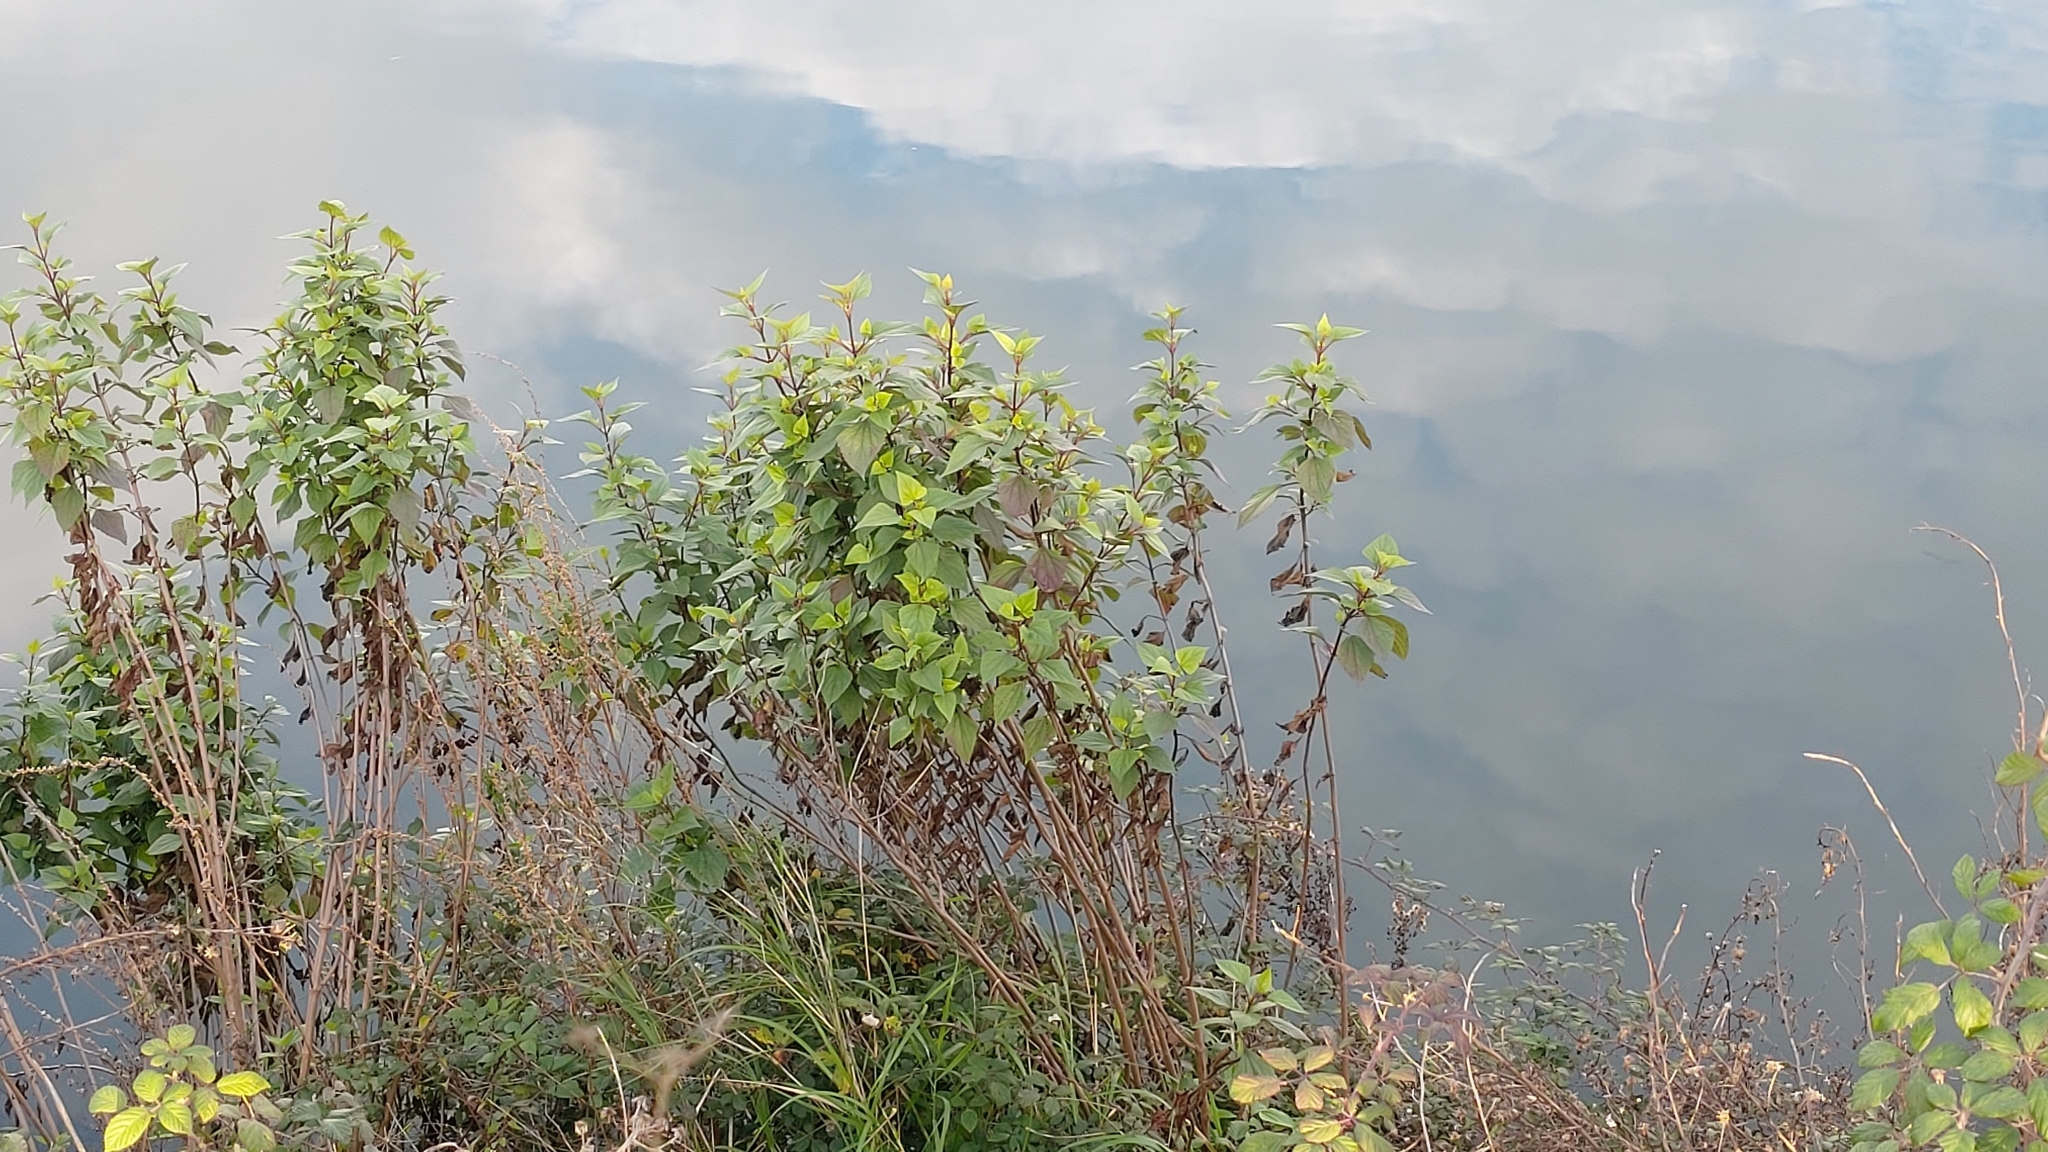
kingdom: Plantae
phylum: Tracheophyta
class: Magnoliopsida
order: Asterales
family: Asteraceae
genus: Ageratina
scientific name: Ageratina adenophora
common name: Sticky snakeroot
